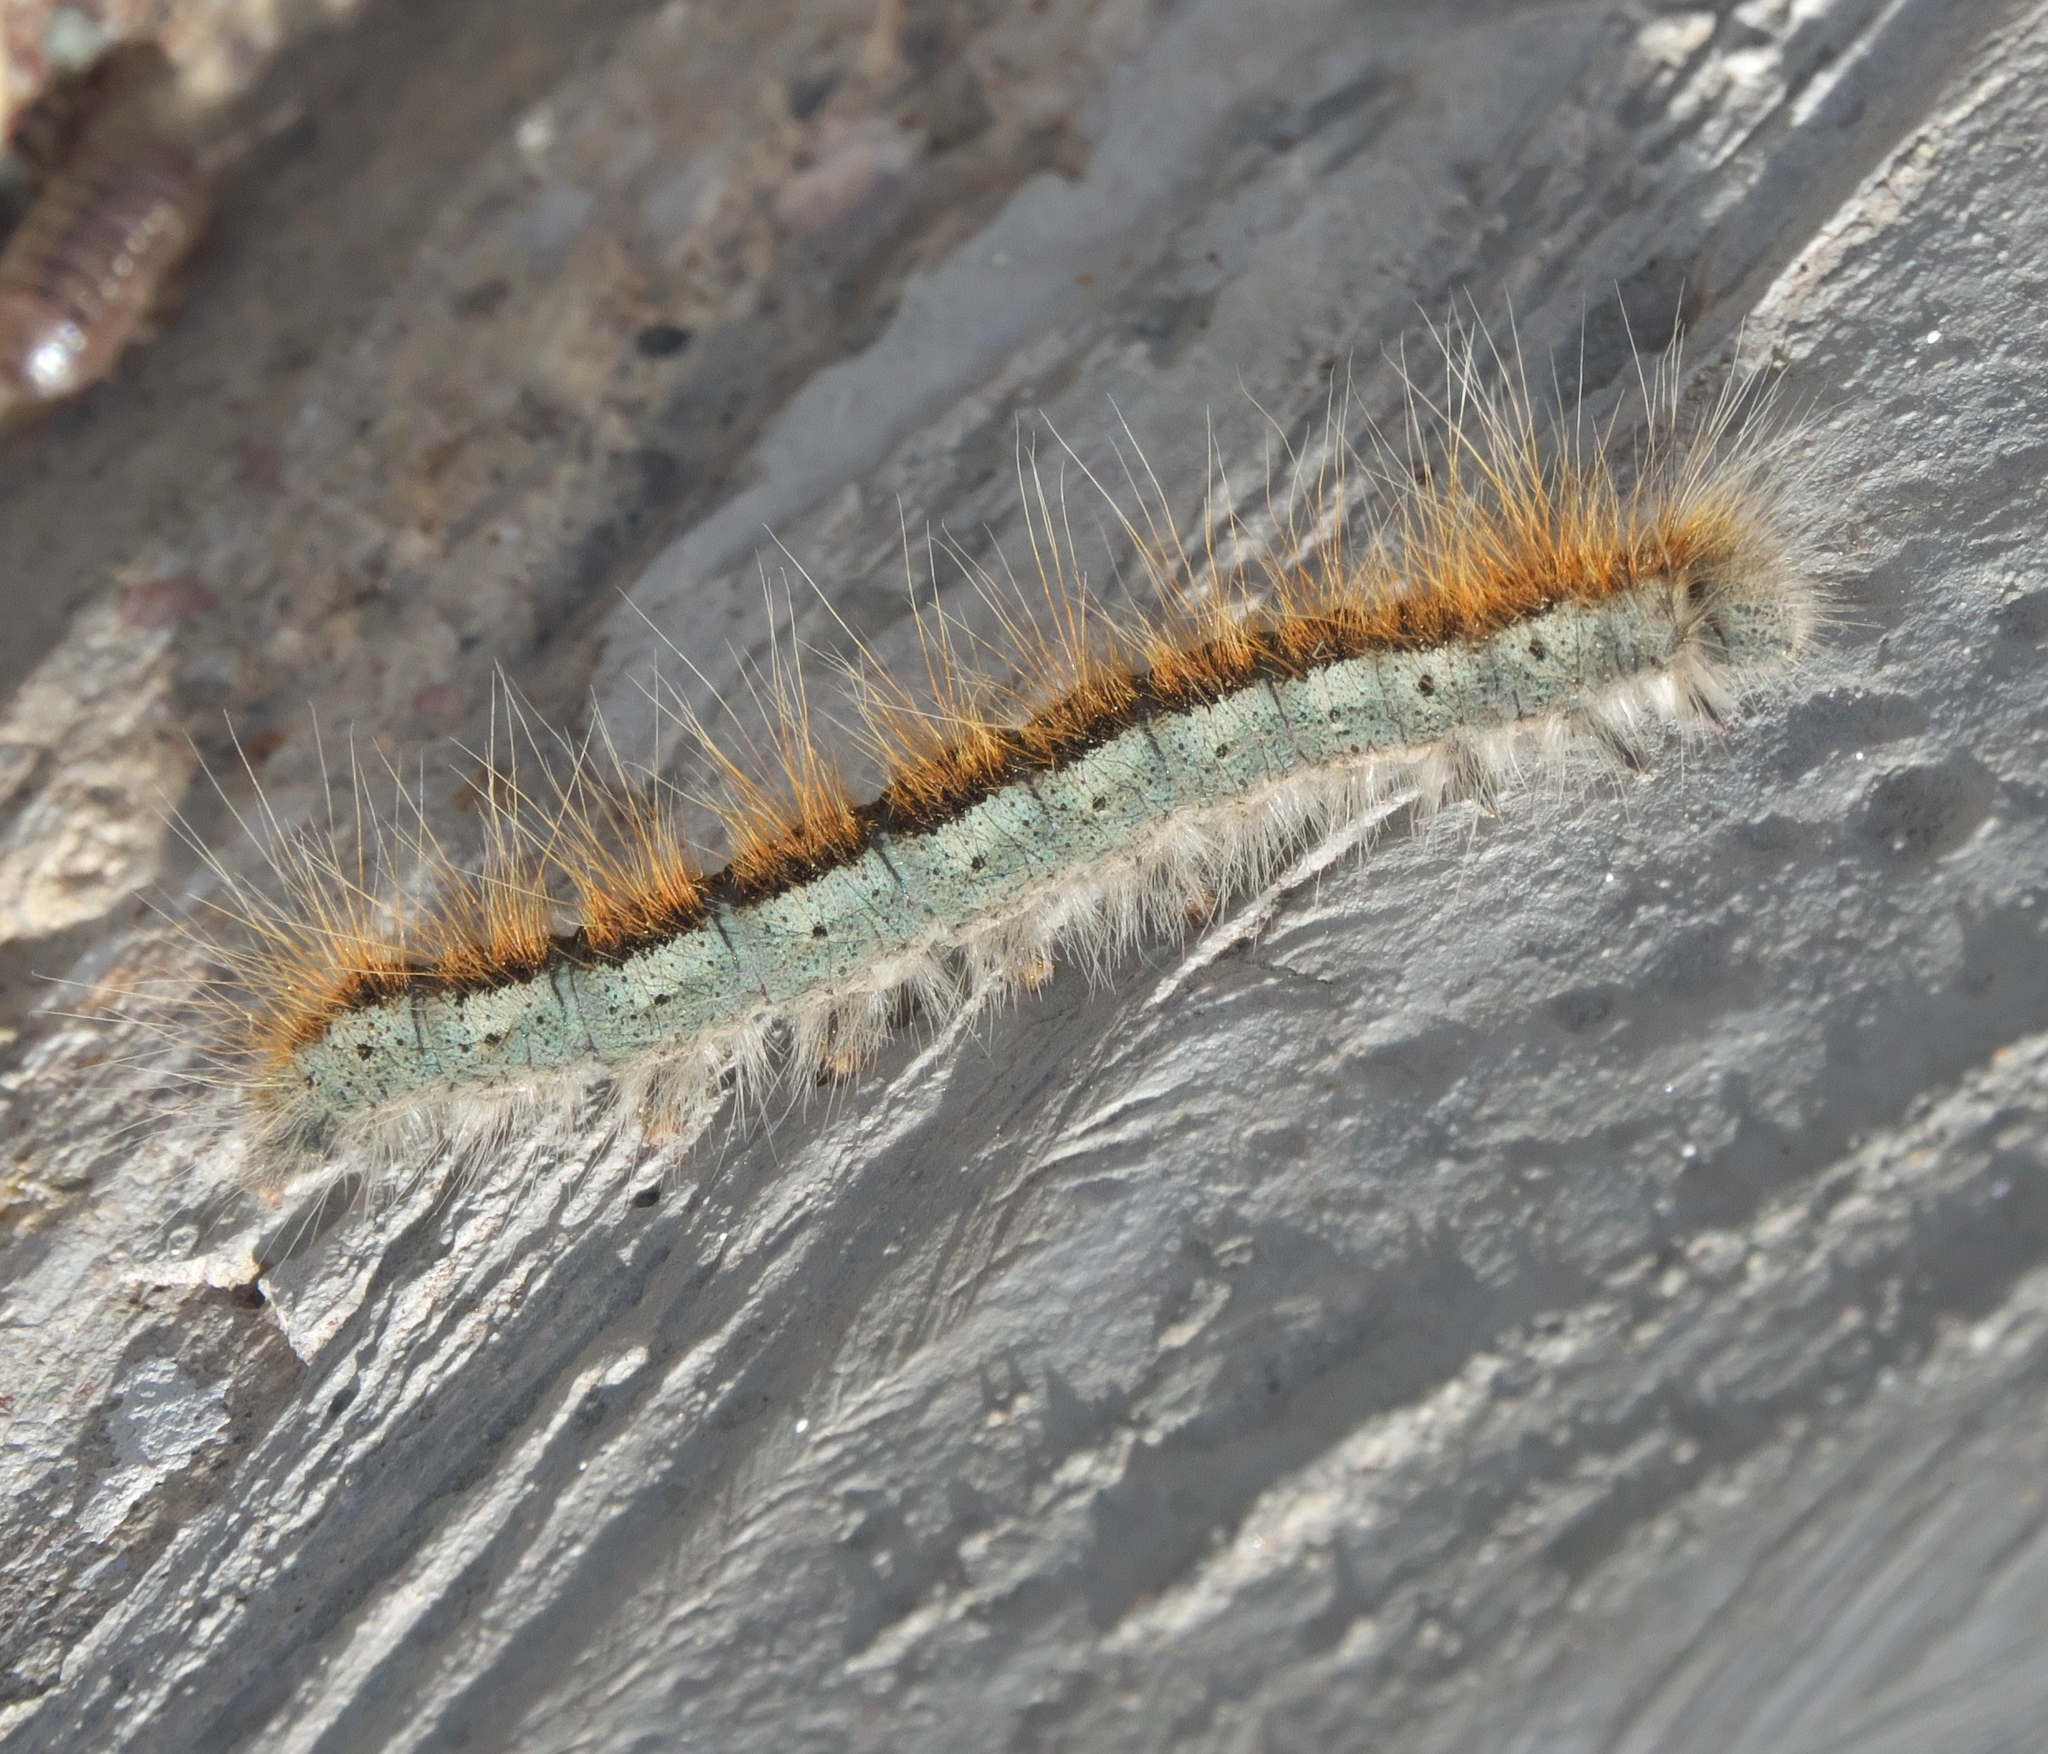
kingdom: Animalia
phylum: Arthropoda
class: Insecta
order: Lepidoptera
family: Lasiocampidae
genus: Malacosoma
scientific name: Malacosoma incurva
